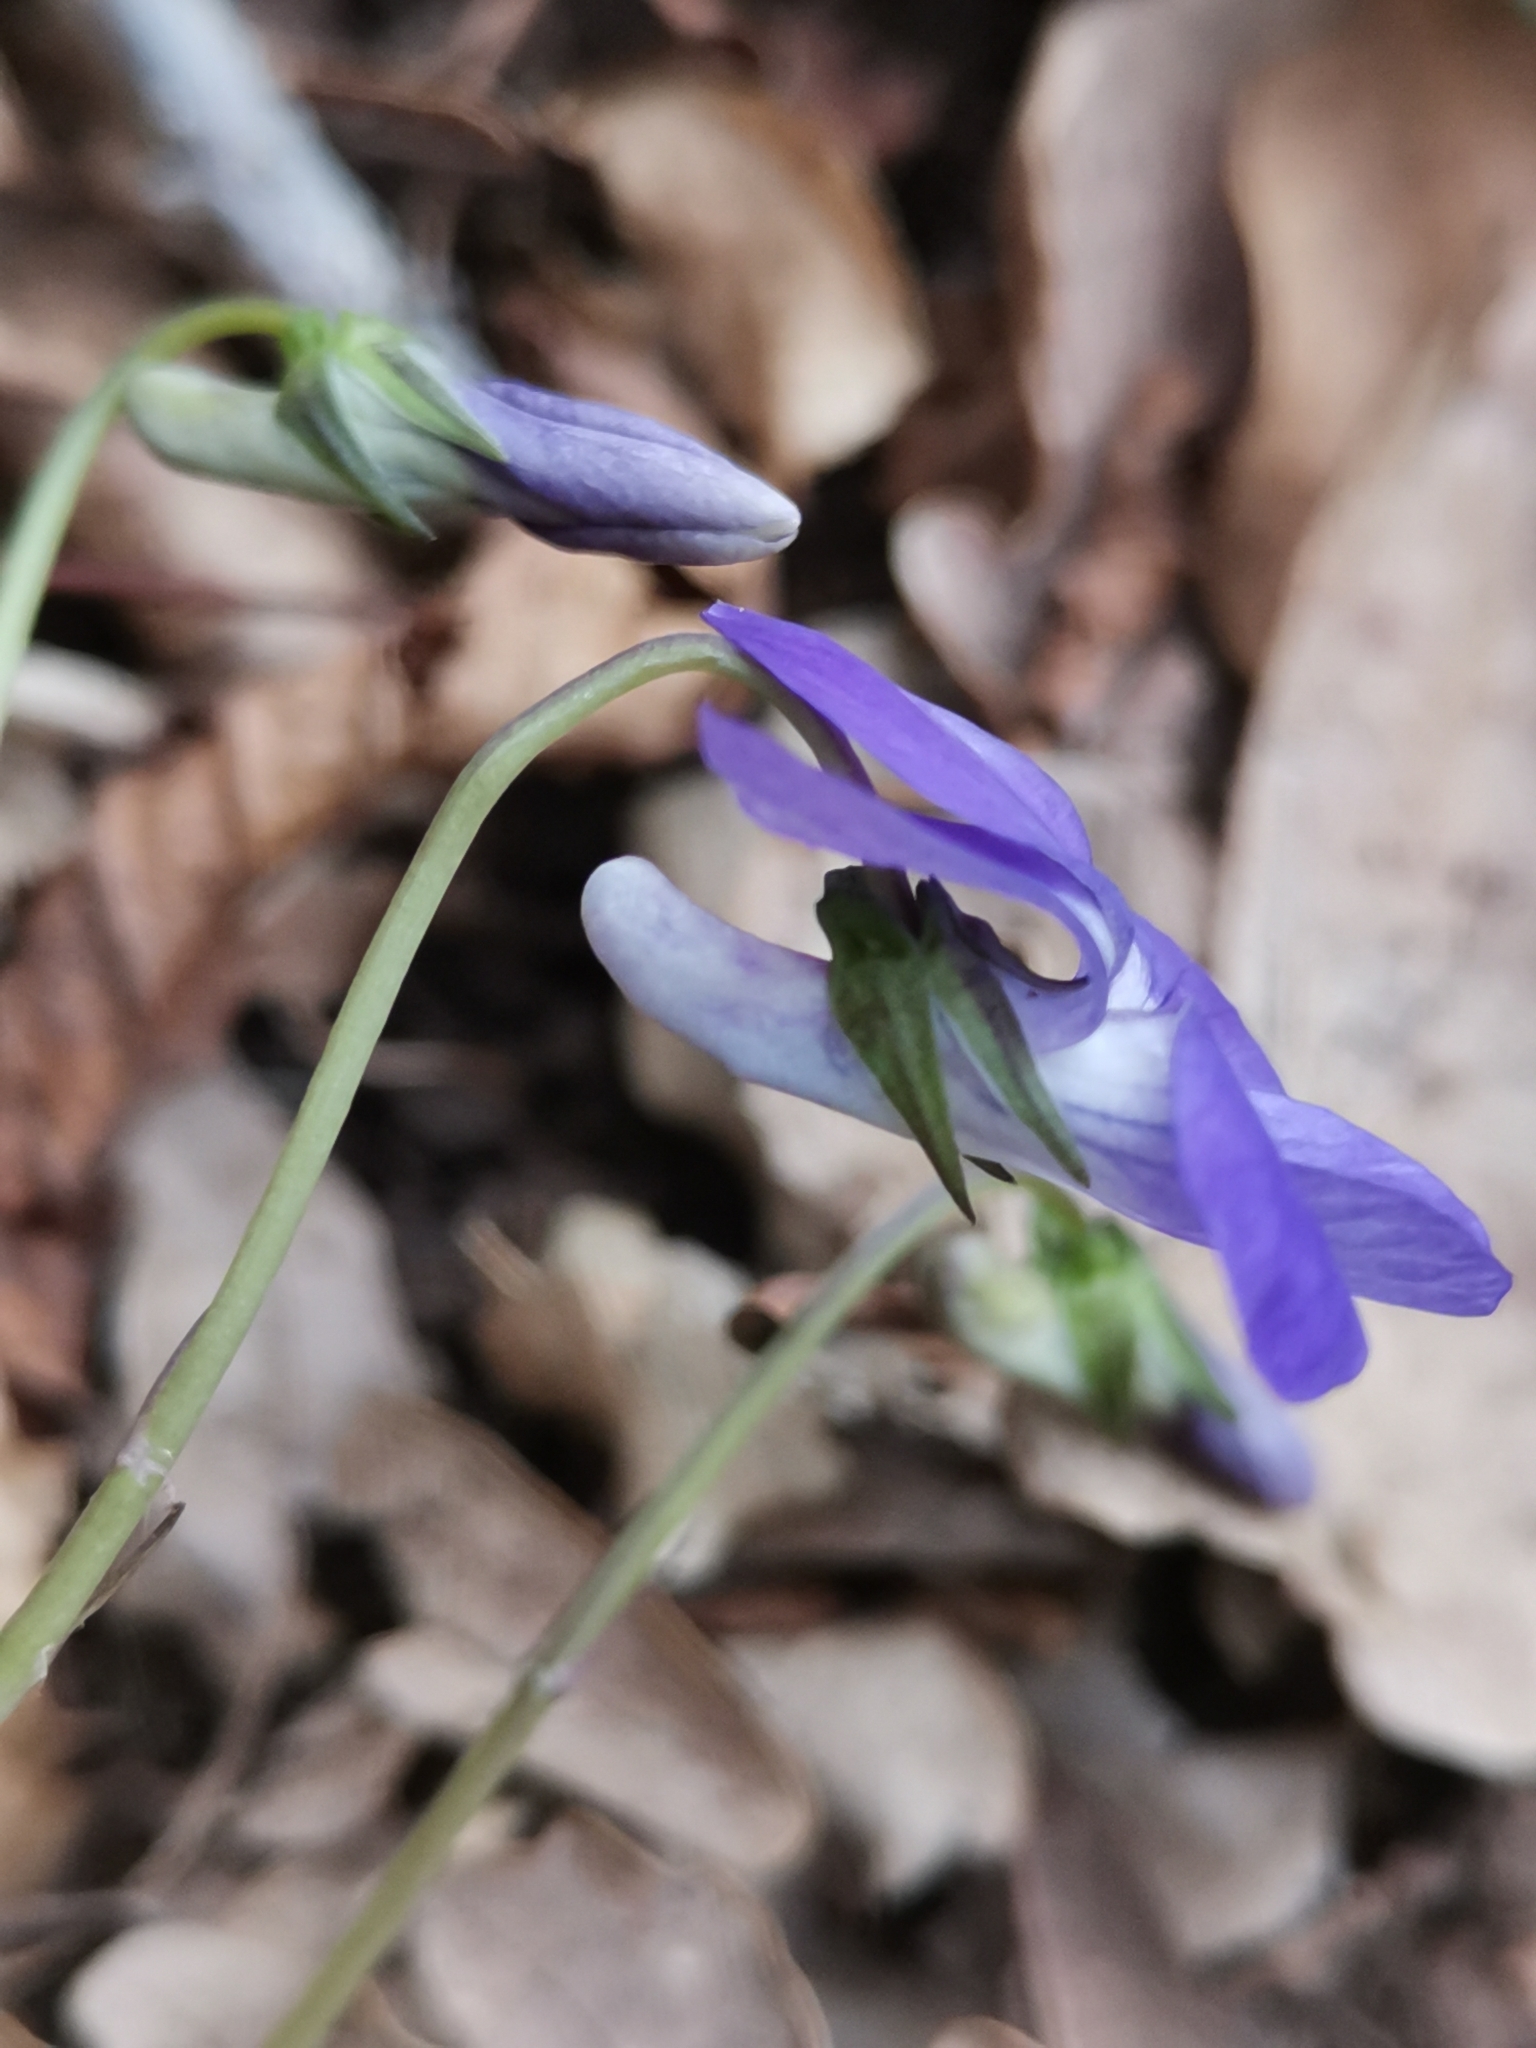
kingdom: Plantae
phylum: Tracheophyta
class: Magnoliopsida
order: Malpighiales
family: Violaceae
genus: Viola
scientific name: Viola riviniana
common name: Common dog-violet
